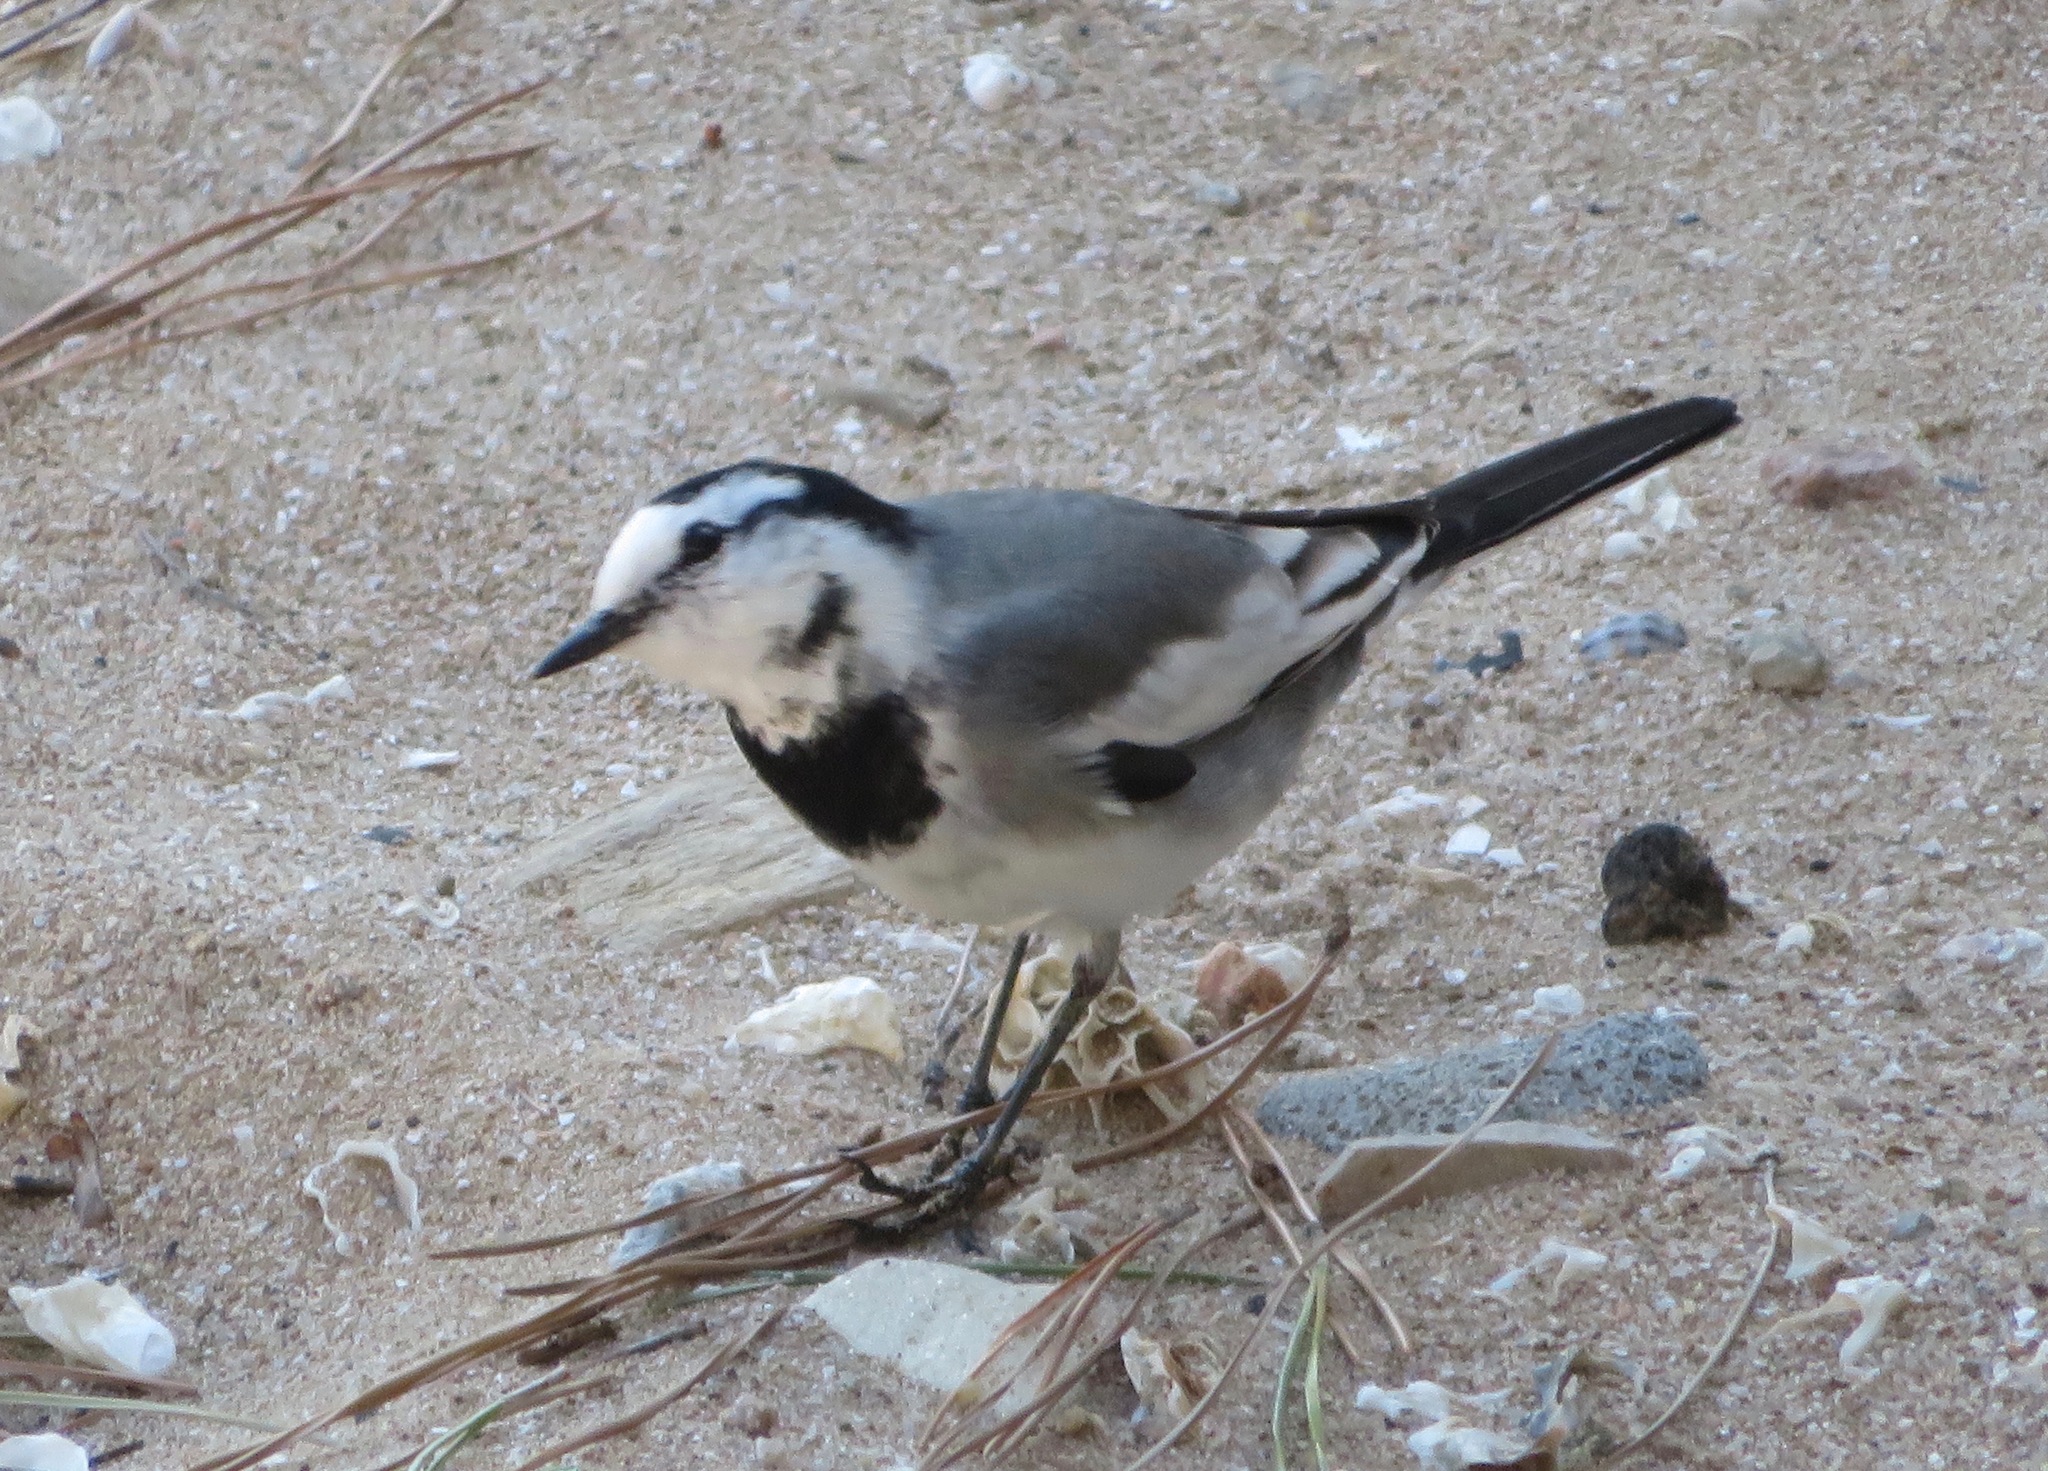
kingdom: Animalia
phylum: Chordata
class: Aves
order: Passeriformes
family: Motacillidae
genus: Motacilla
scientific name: Motacilla alba
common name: White wagtail
